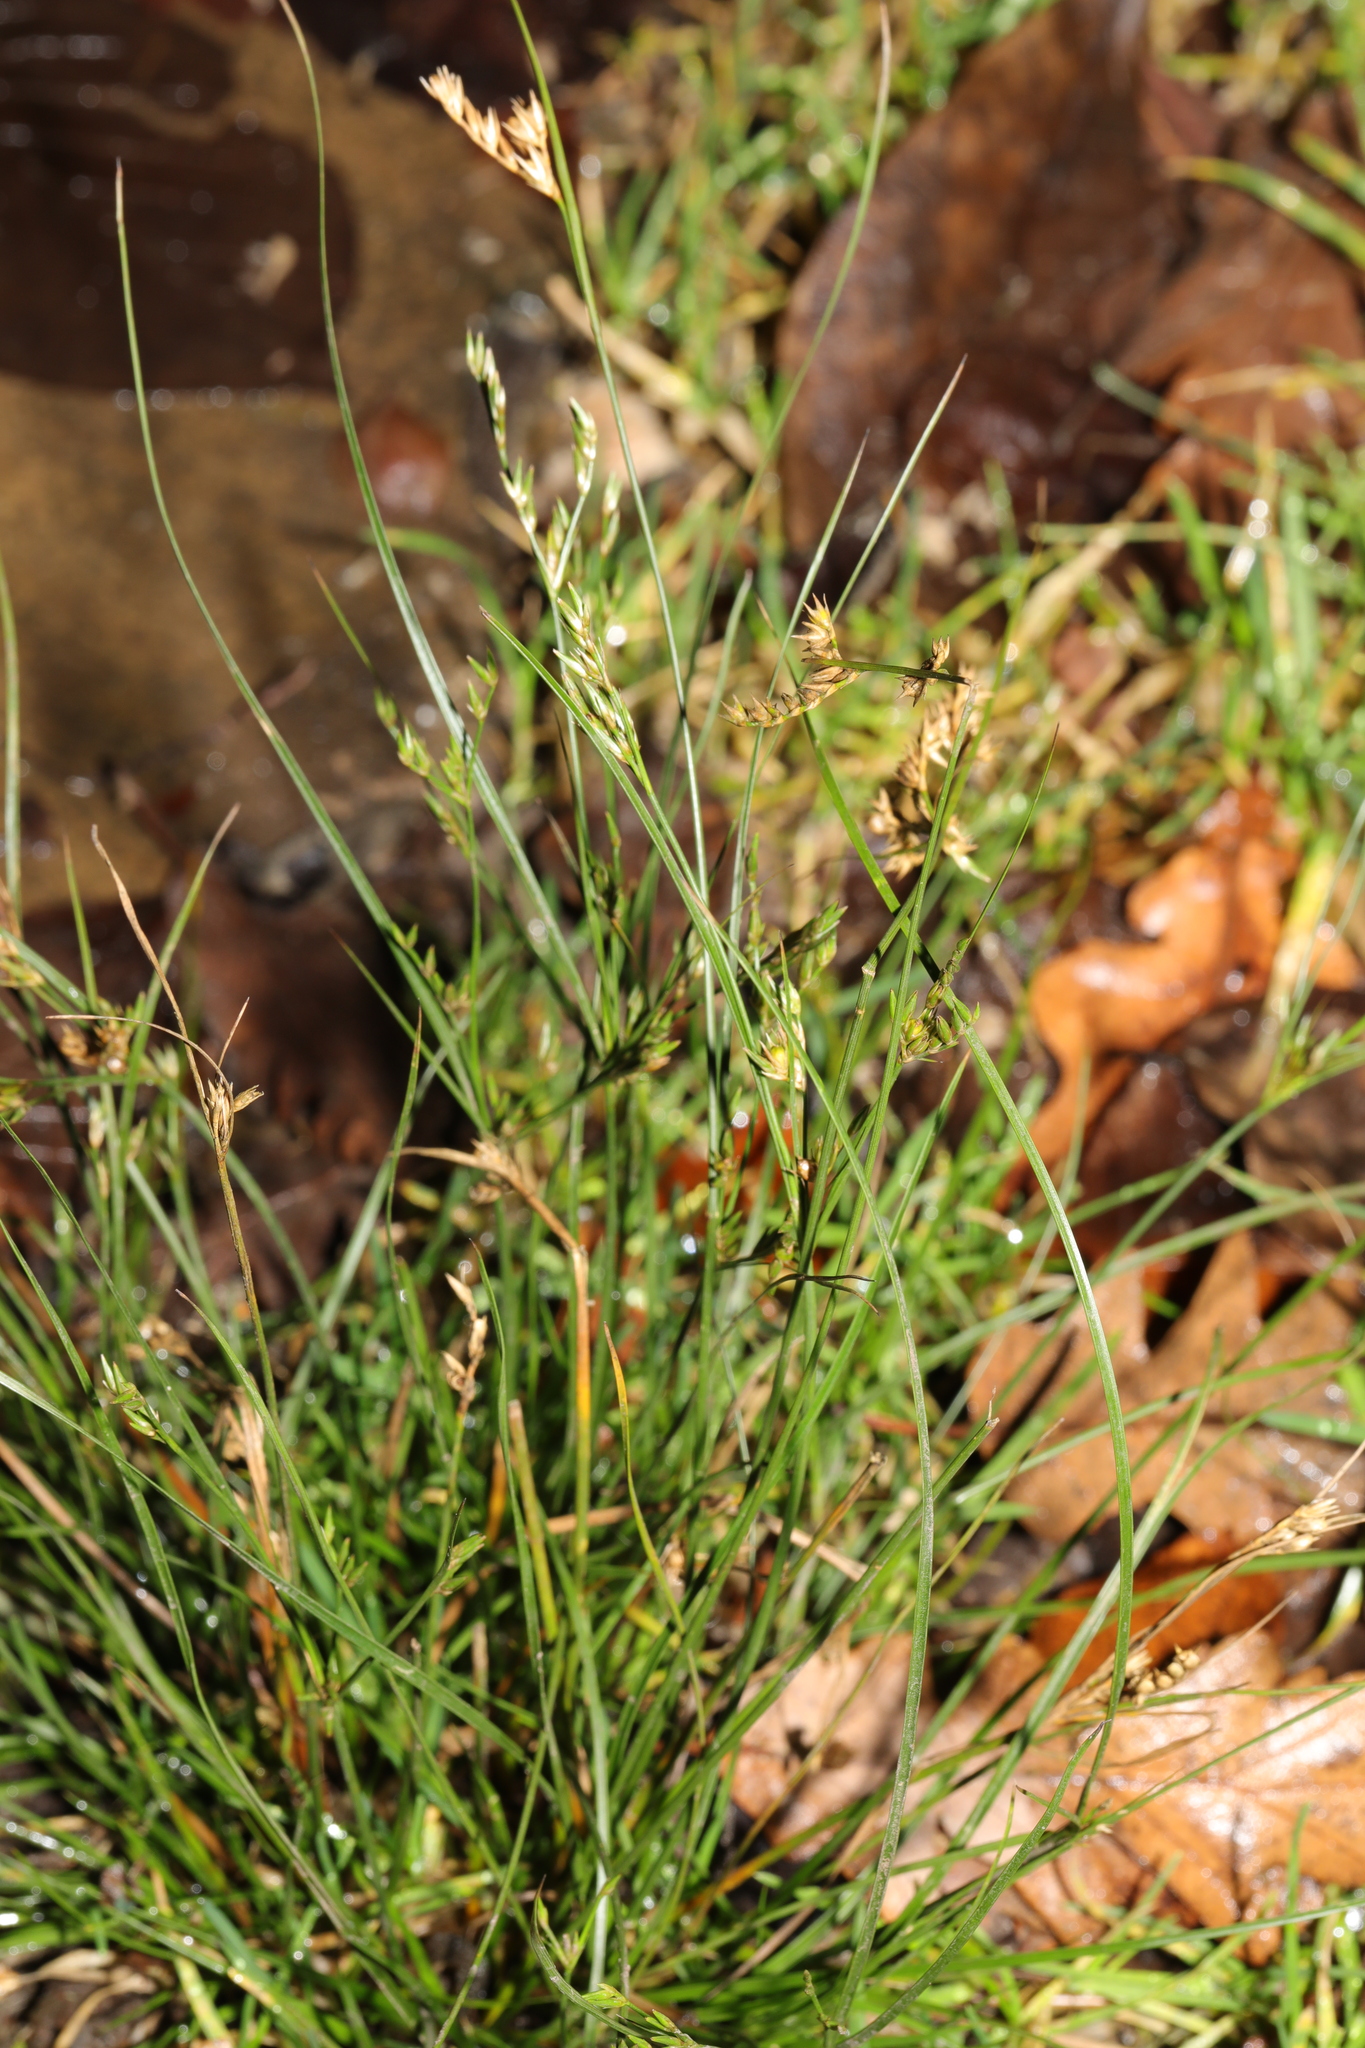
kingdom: Plantae
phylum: Tracheophyta
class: Liliopsida
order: Poales
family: Juncaceae
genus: Juncus
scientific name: Juncus tenuis
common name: Slender rush
